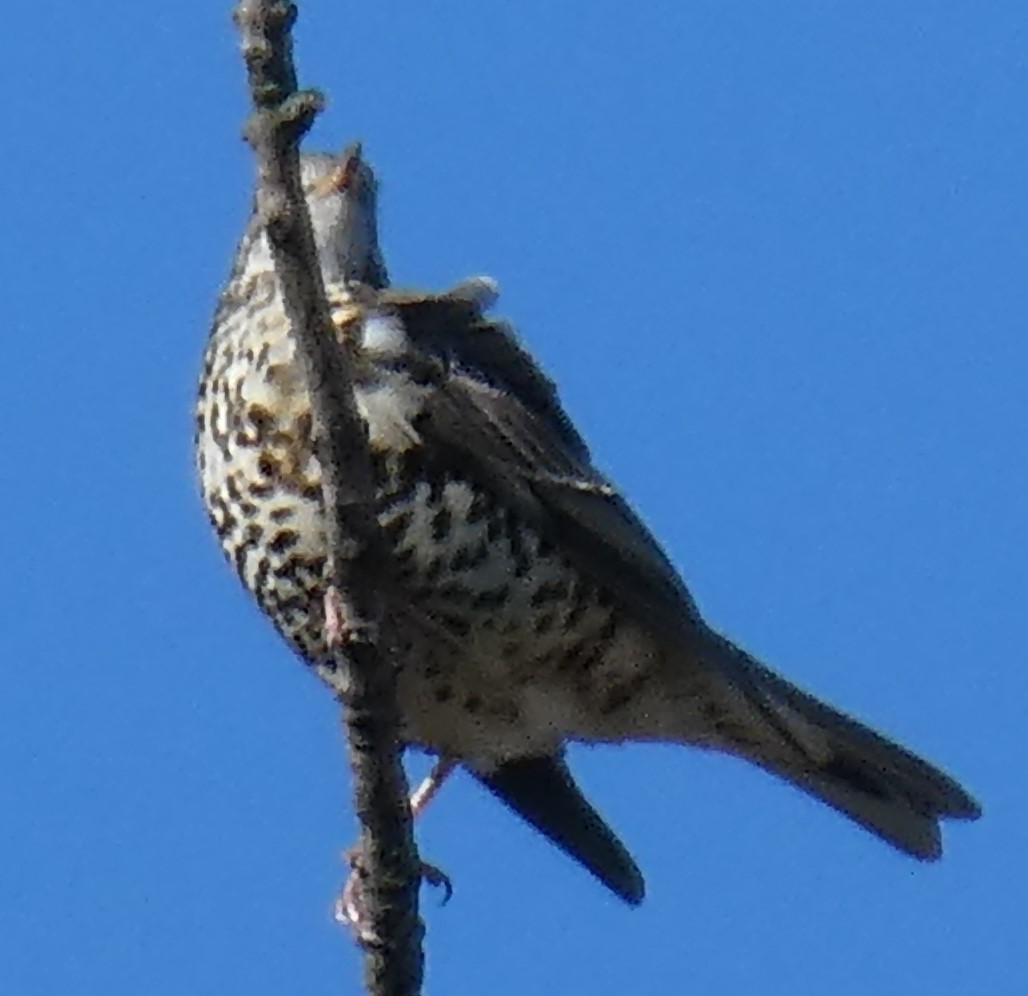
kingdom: Animalia
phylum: Chordata
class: Aves
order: Passeriformes
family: Turdidae
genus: Turdus
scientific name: Turdus viscivorus
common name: Mistle thrush
